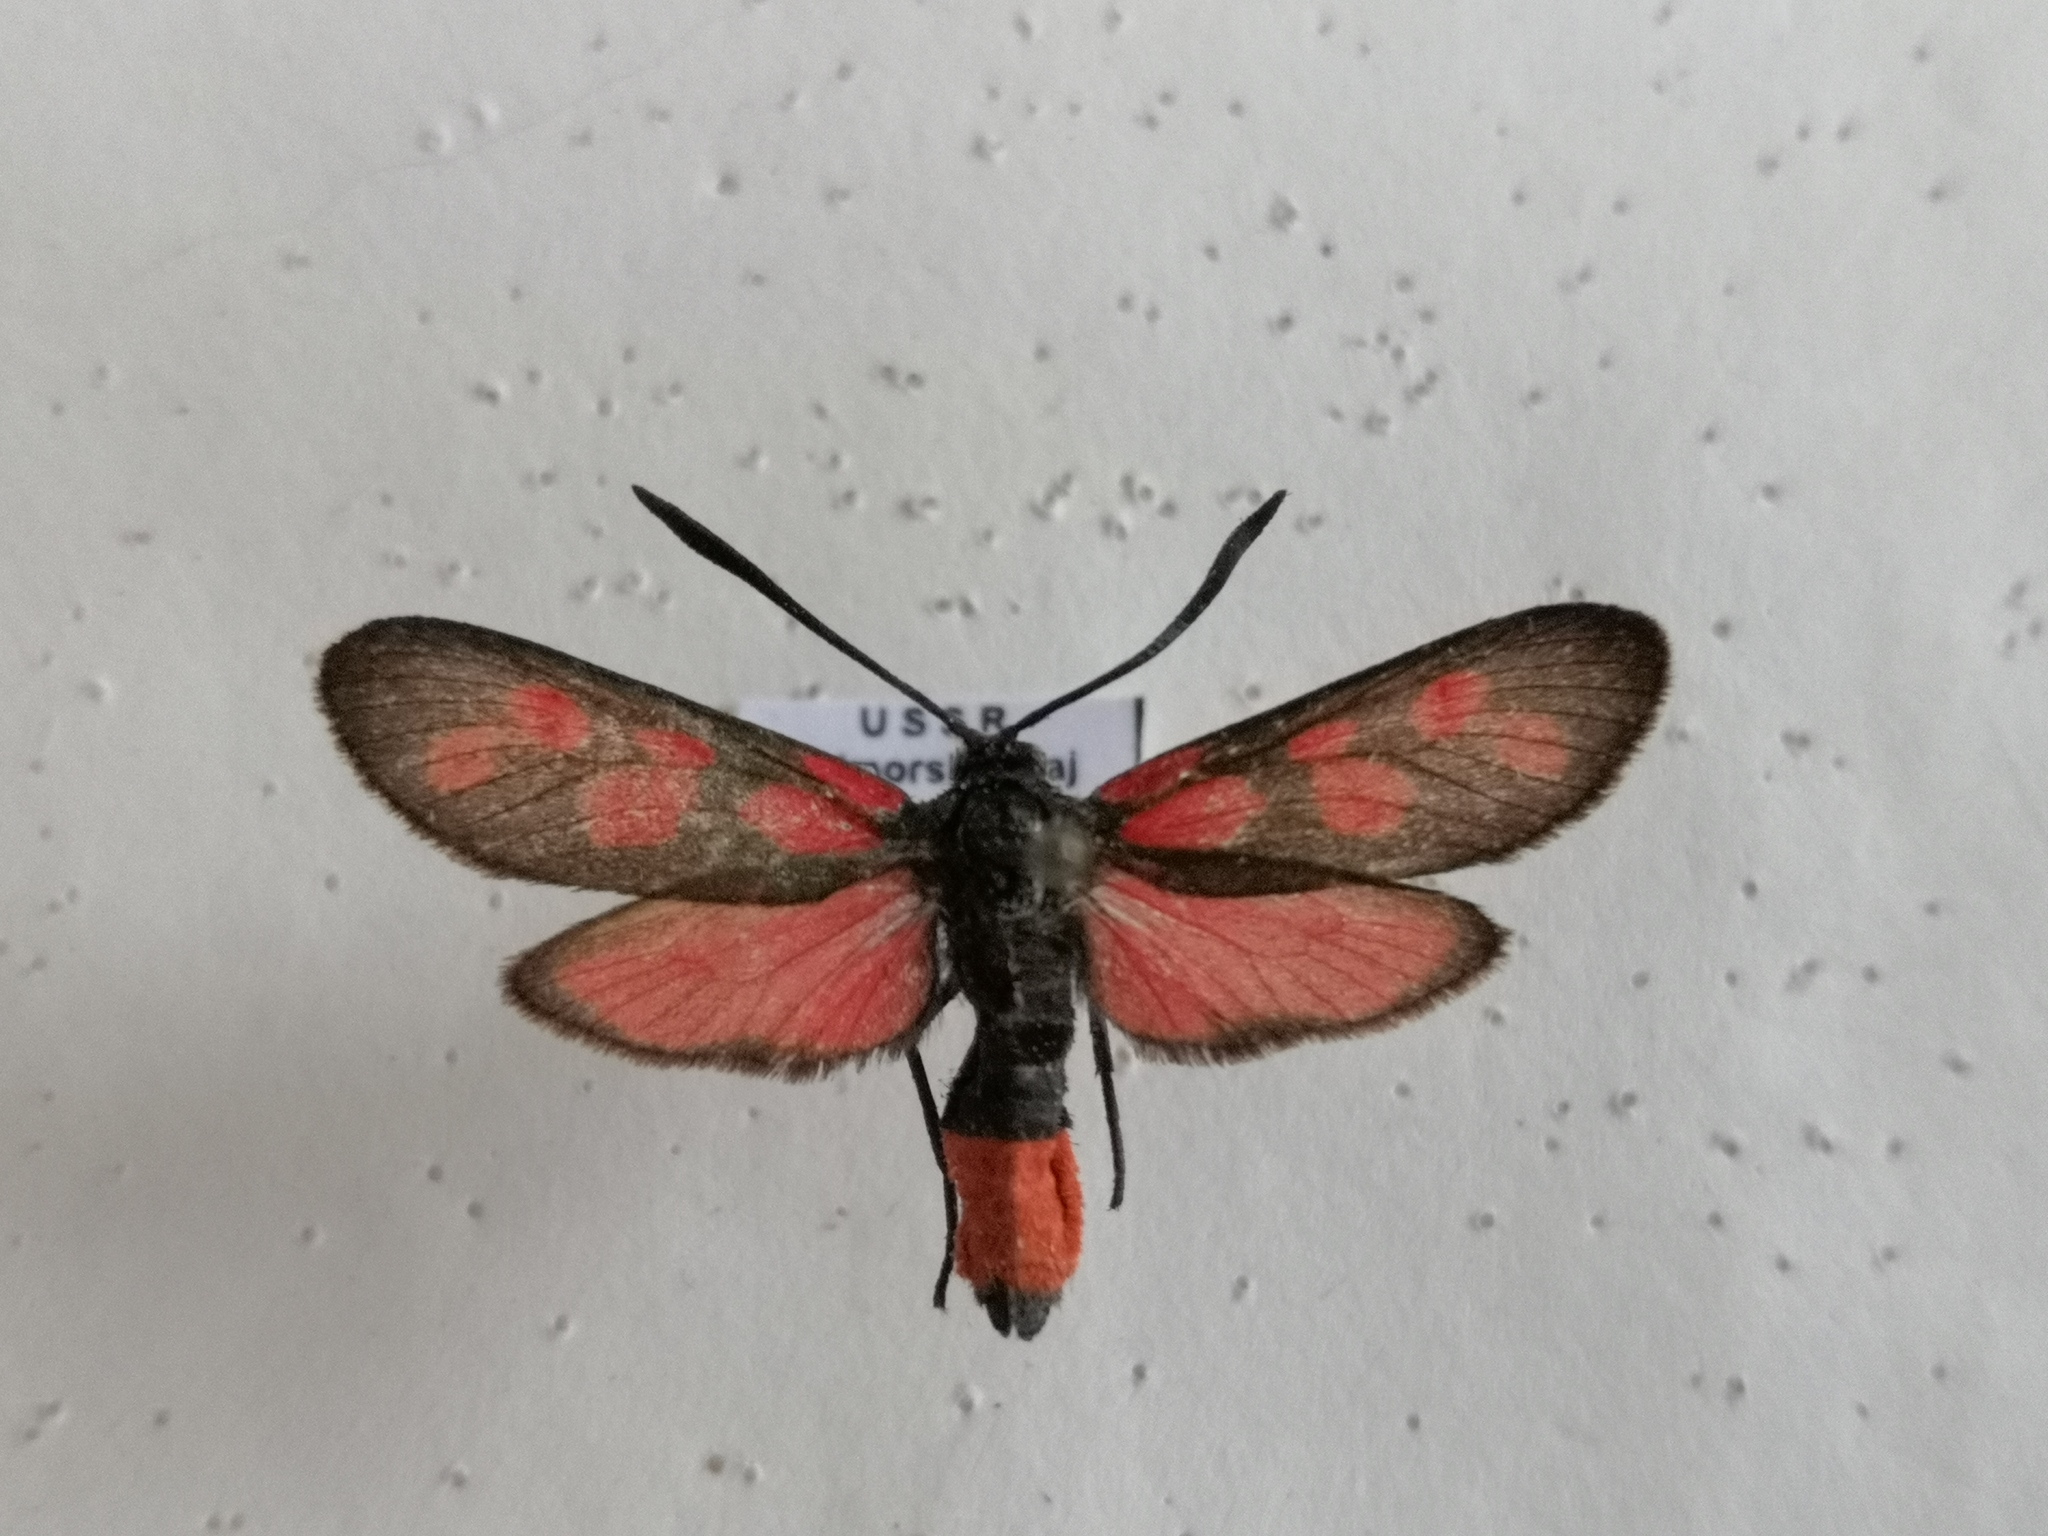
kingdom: Animalia
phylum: Arthropoda
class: Insecta
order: Lepidoptera
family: Zygaenidae
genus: Zygaena
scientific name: Zygaena niphona
